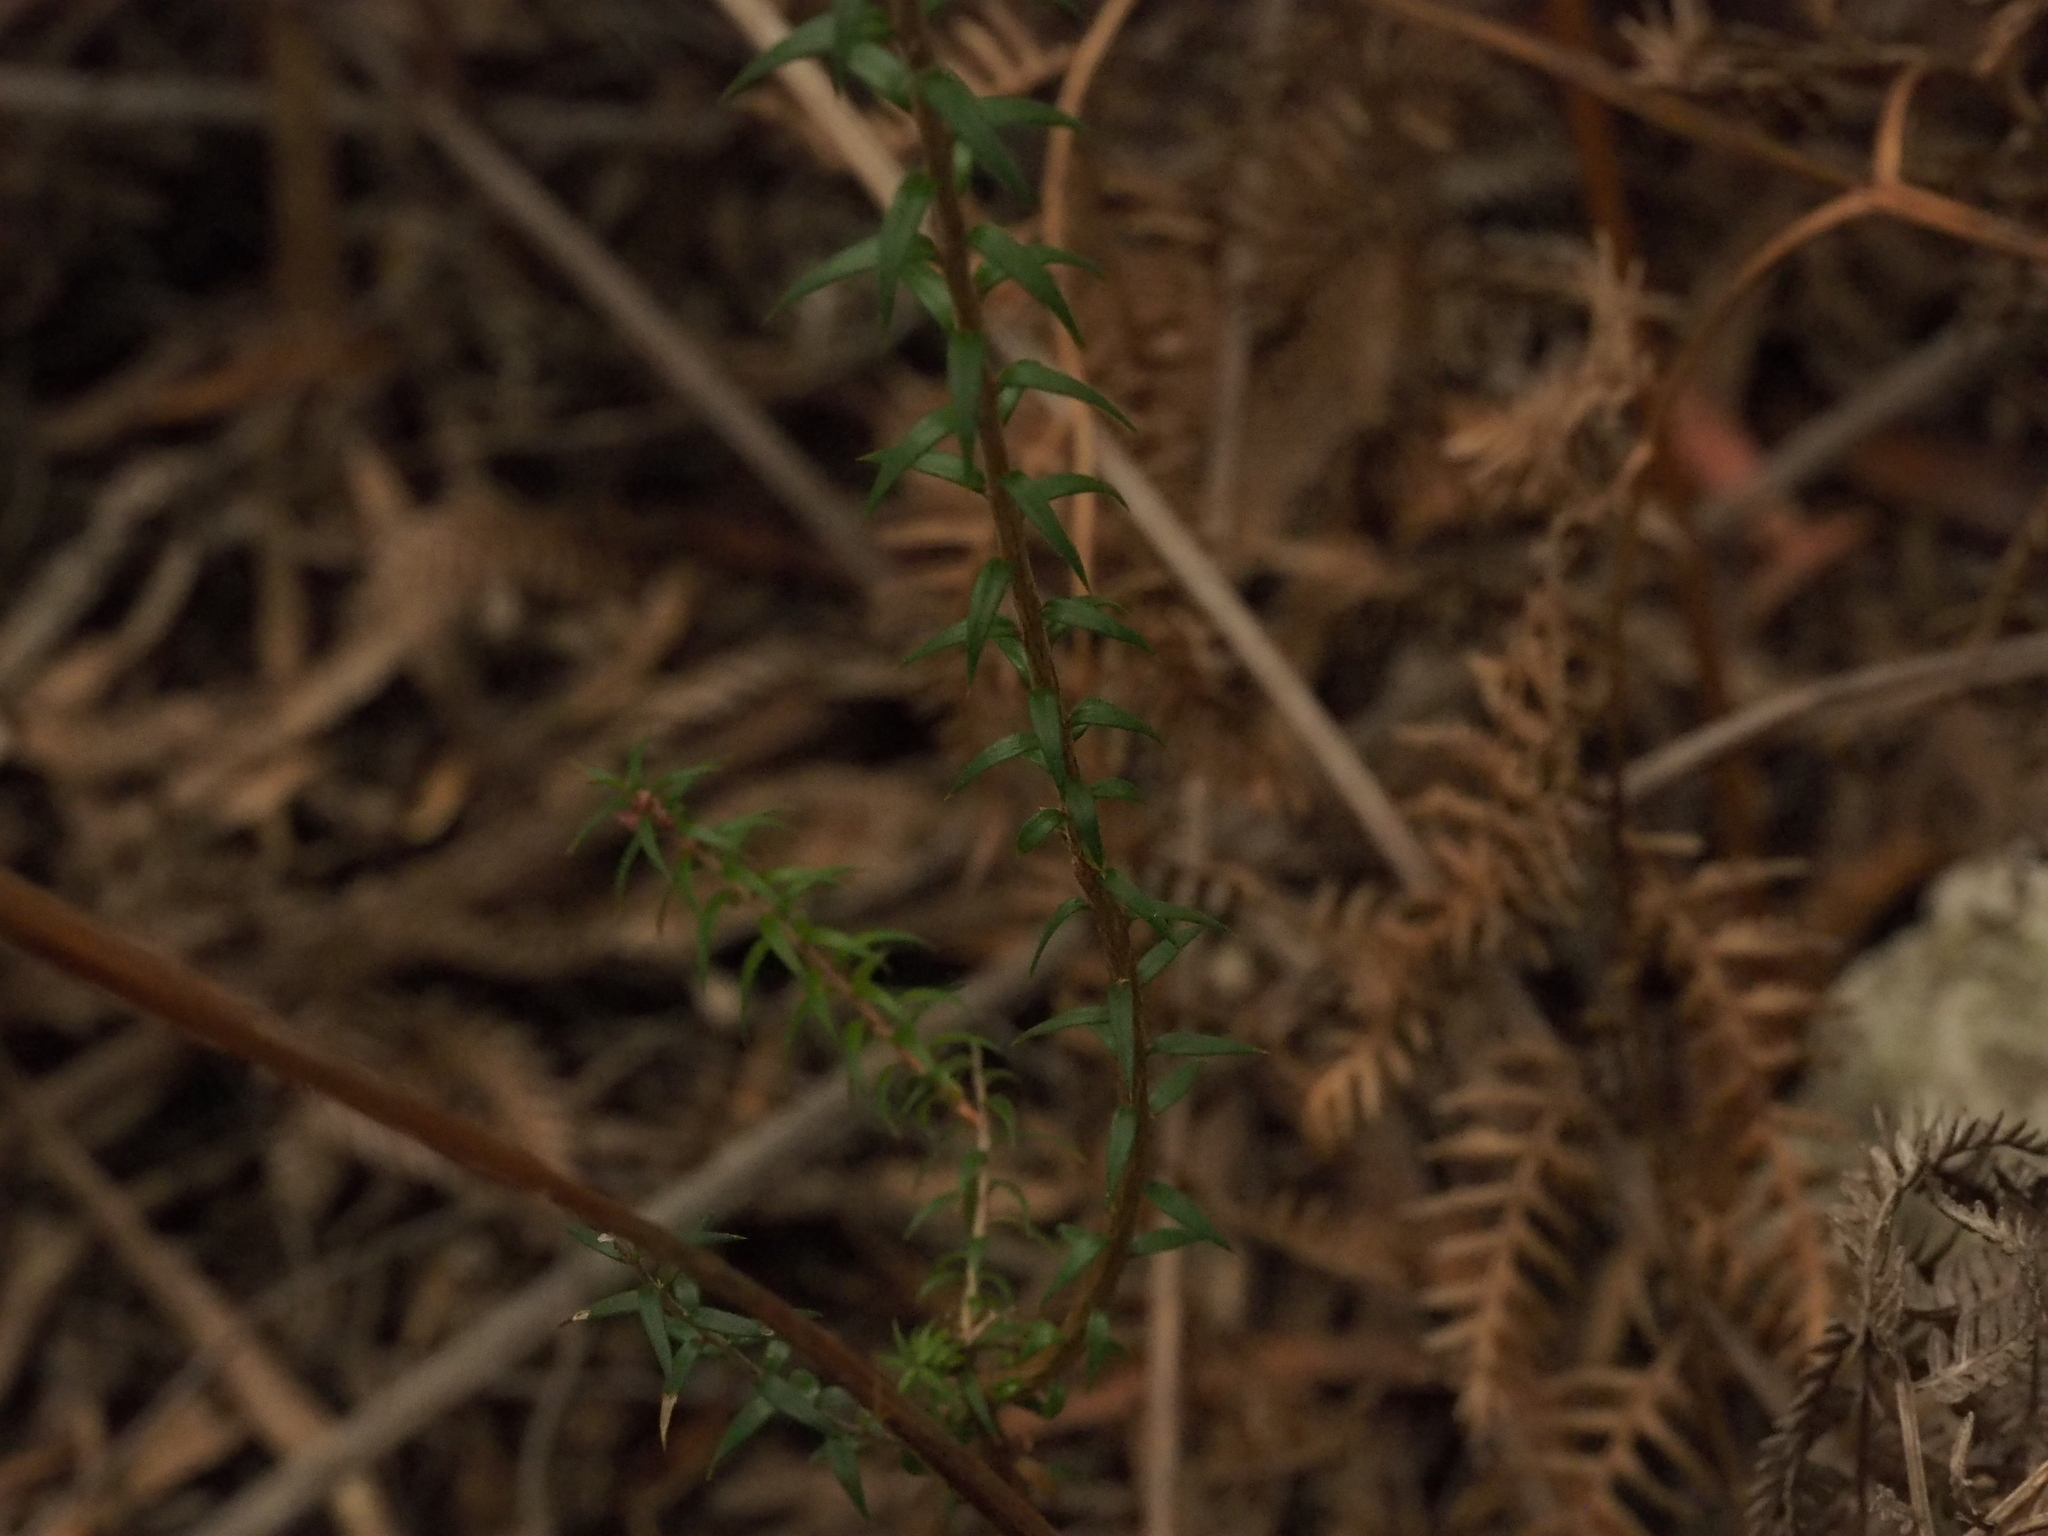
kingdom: Plantae
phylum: Tracheophyta
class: Magnoliopsida
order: Ericales
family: Ericaceae
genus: Epacris
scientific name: Epacris impressa
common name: Common-heath
